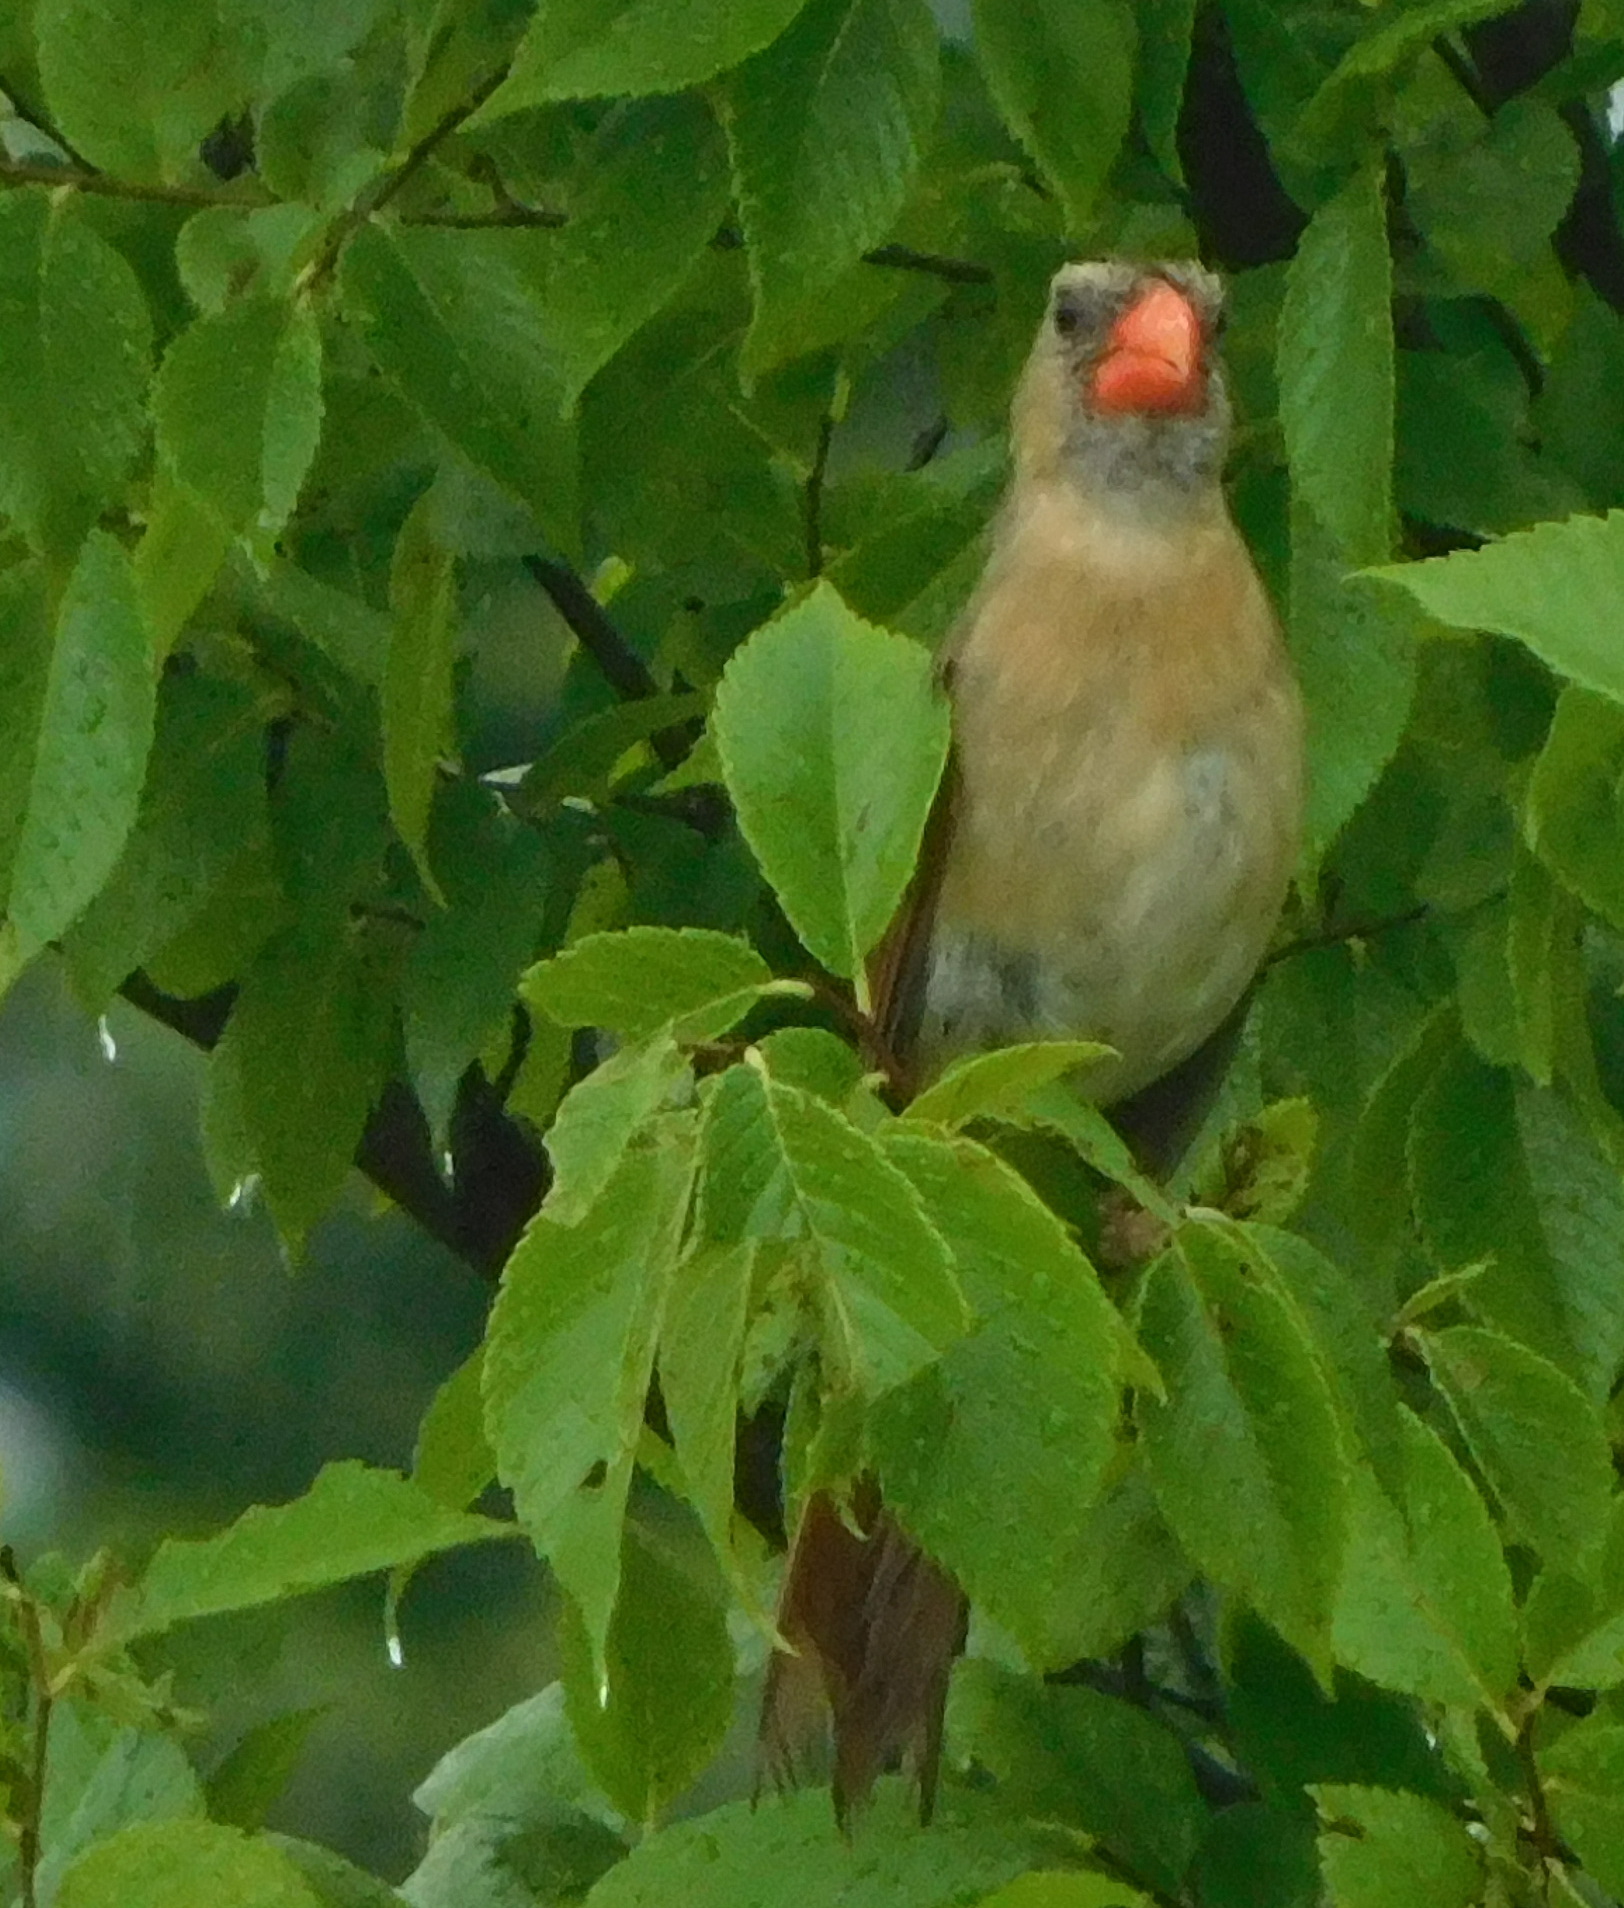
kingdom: Animalia
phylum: Chordata
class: Aves
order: Passeriformes
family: Cardinalidae
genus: Cardinalis
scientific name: Cardinalis cardinalis
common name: Northern cardinal
